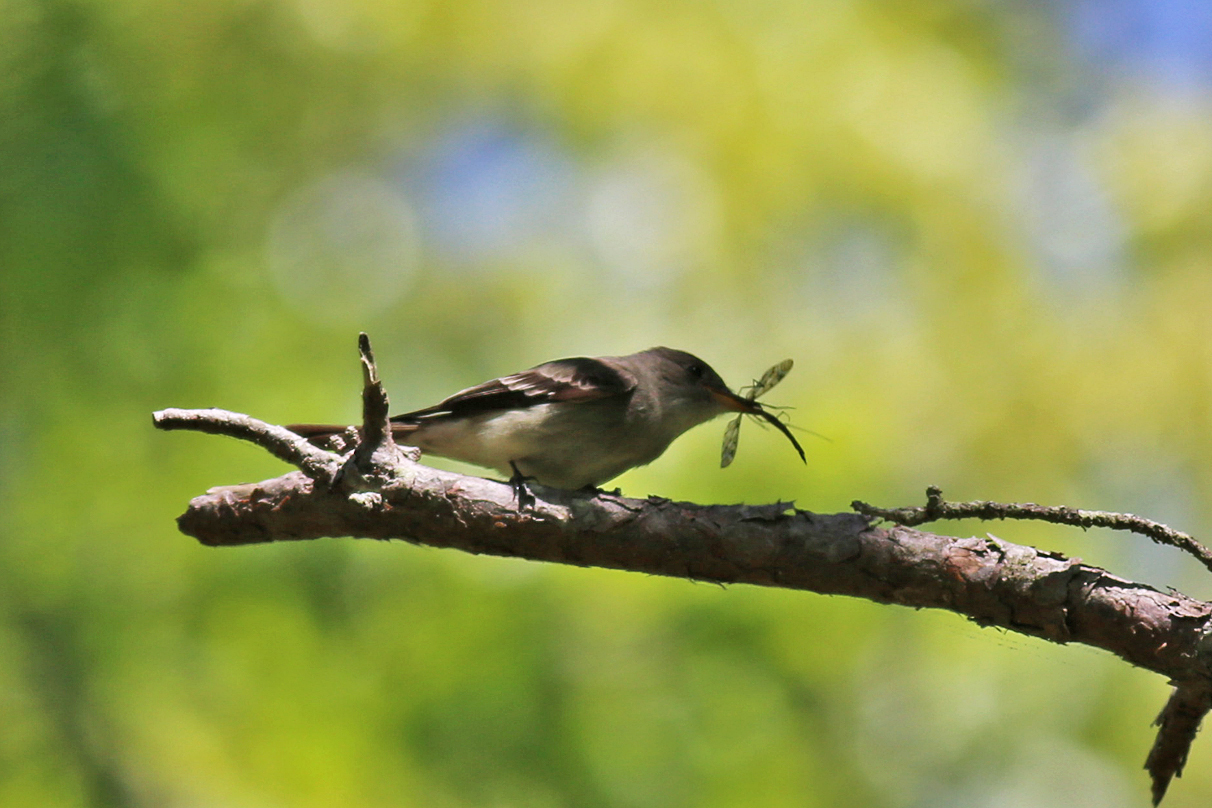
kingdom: Animalia
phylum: Chordata
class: Aves
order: Passeriformes
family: Tyrannidae
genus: Contopus
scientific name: Contopus virens
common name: Eastern wood-pewee
